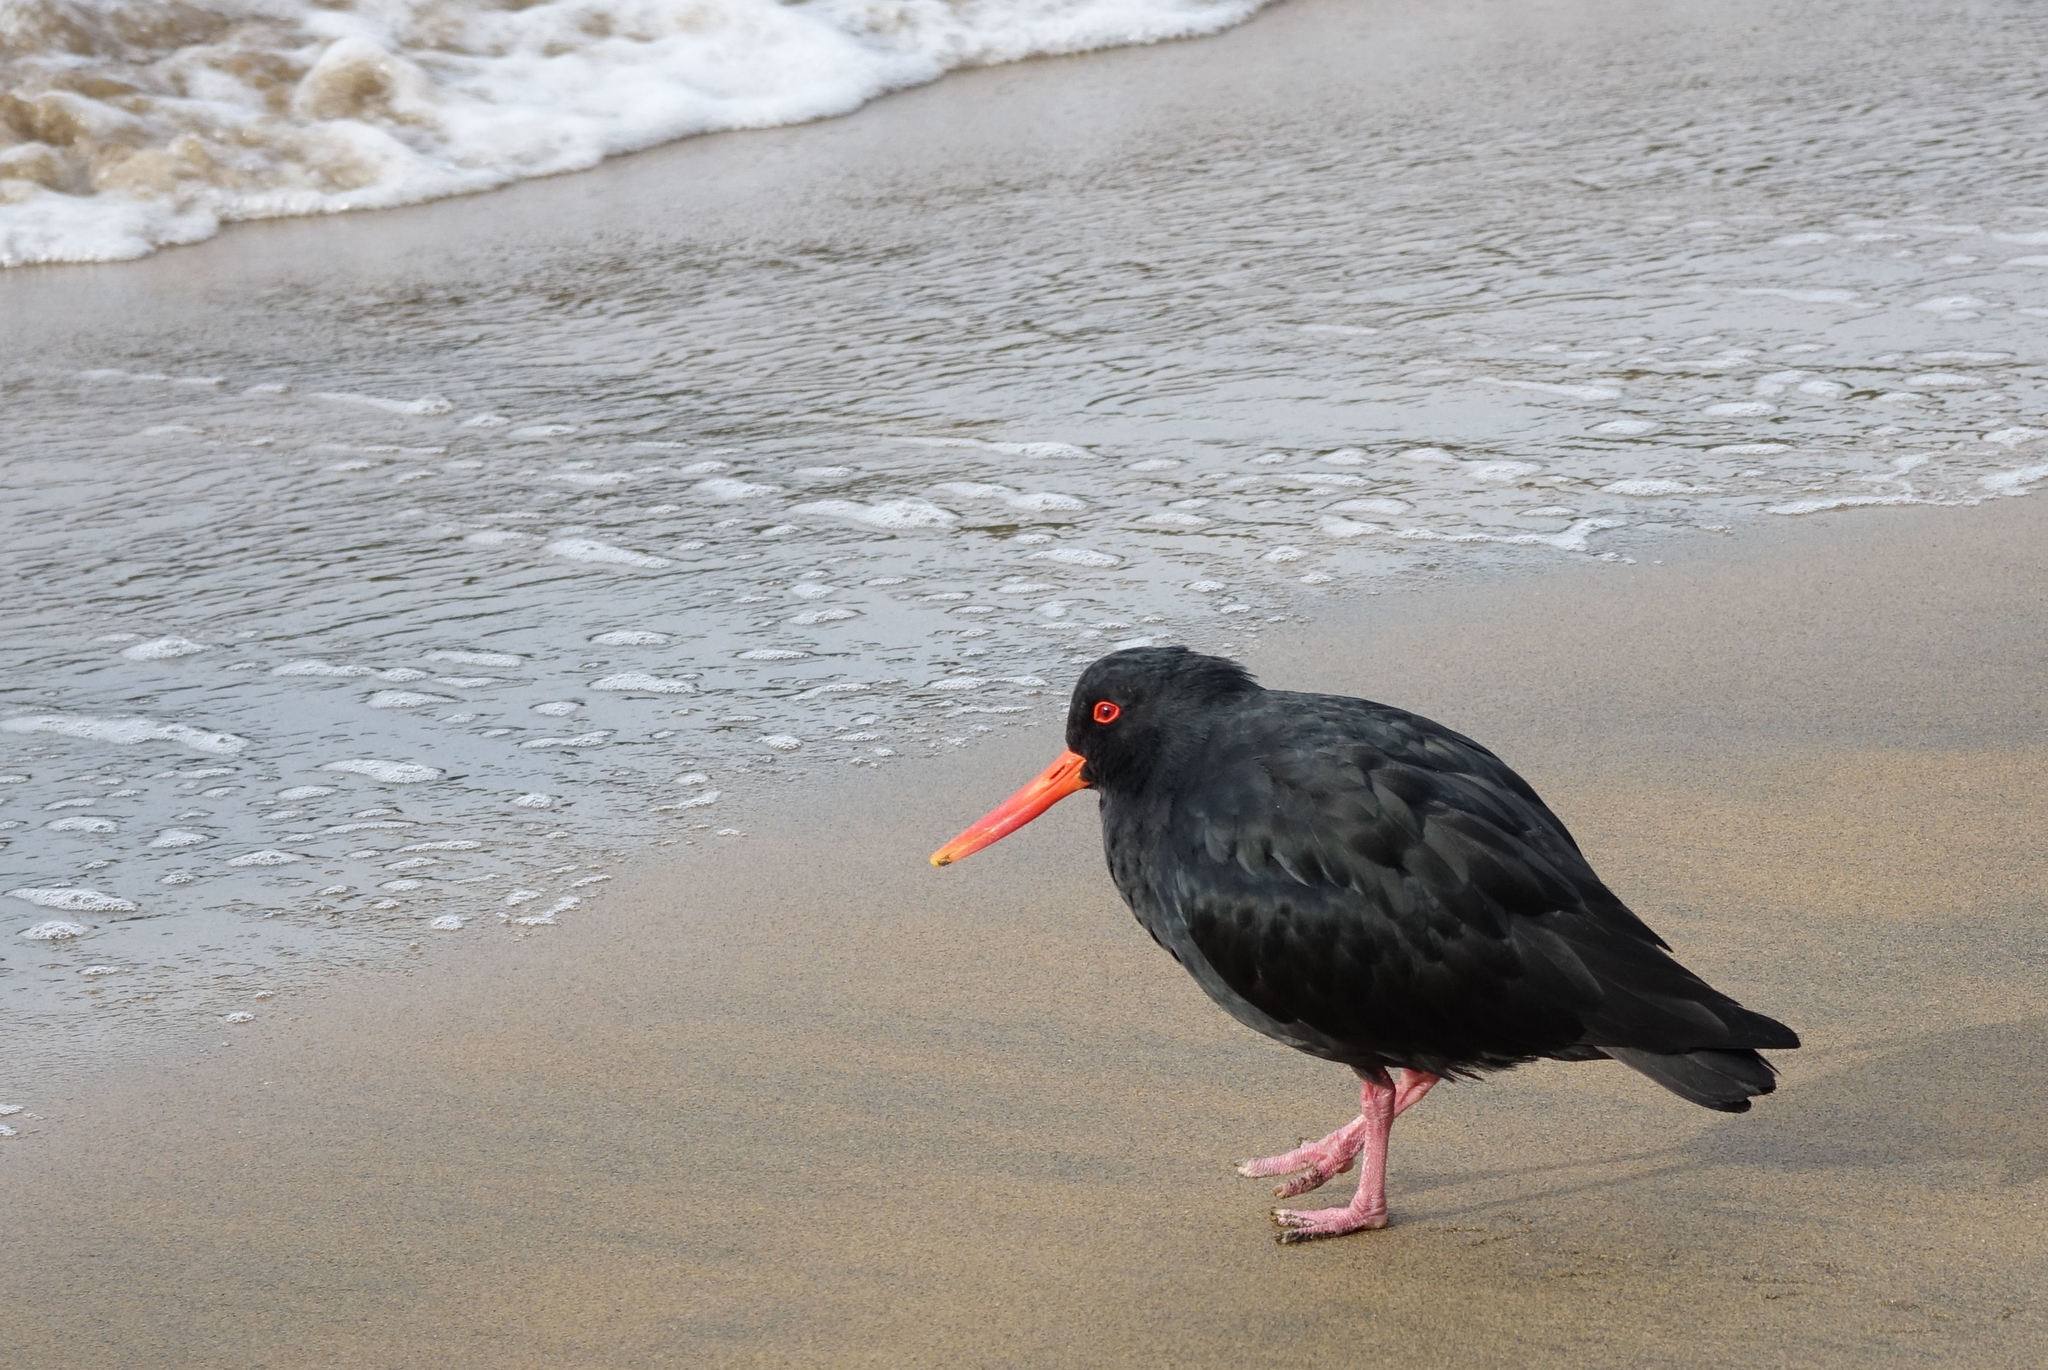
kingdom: Animalia
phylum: Chordata
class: Aves
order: Charadriiformes
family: Haematopodidae
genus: Haematopus
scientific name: Haematopus unicolor
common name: Variable oystercatcher
